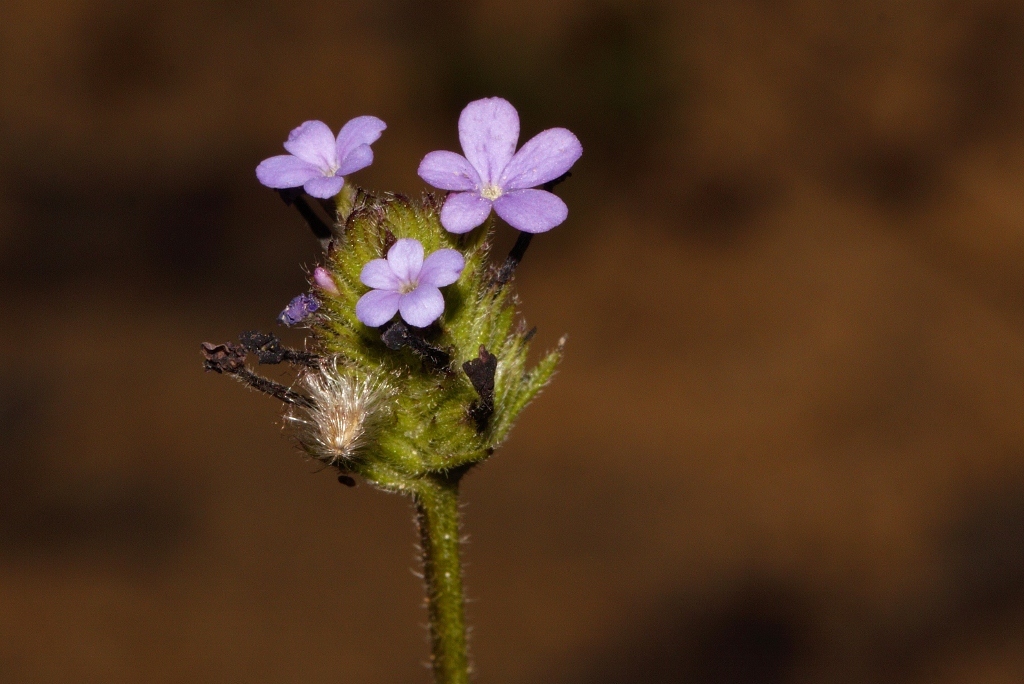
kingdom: Plantae
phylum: Tracheophyta
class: Magnoliopsida
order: Lamiales
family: Orobanchaceae
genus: Buchnera
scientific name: Buchnera randii
